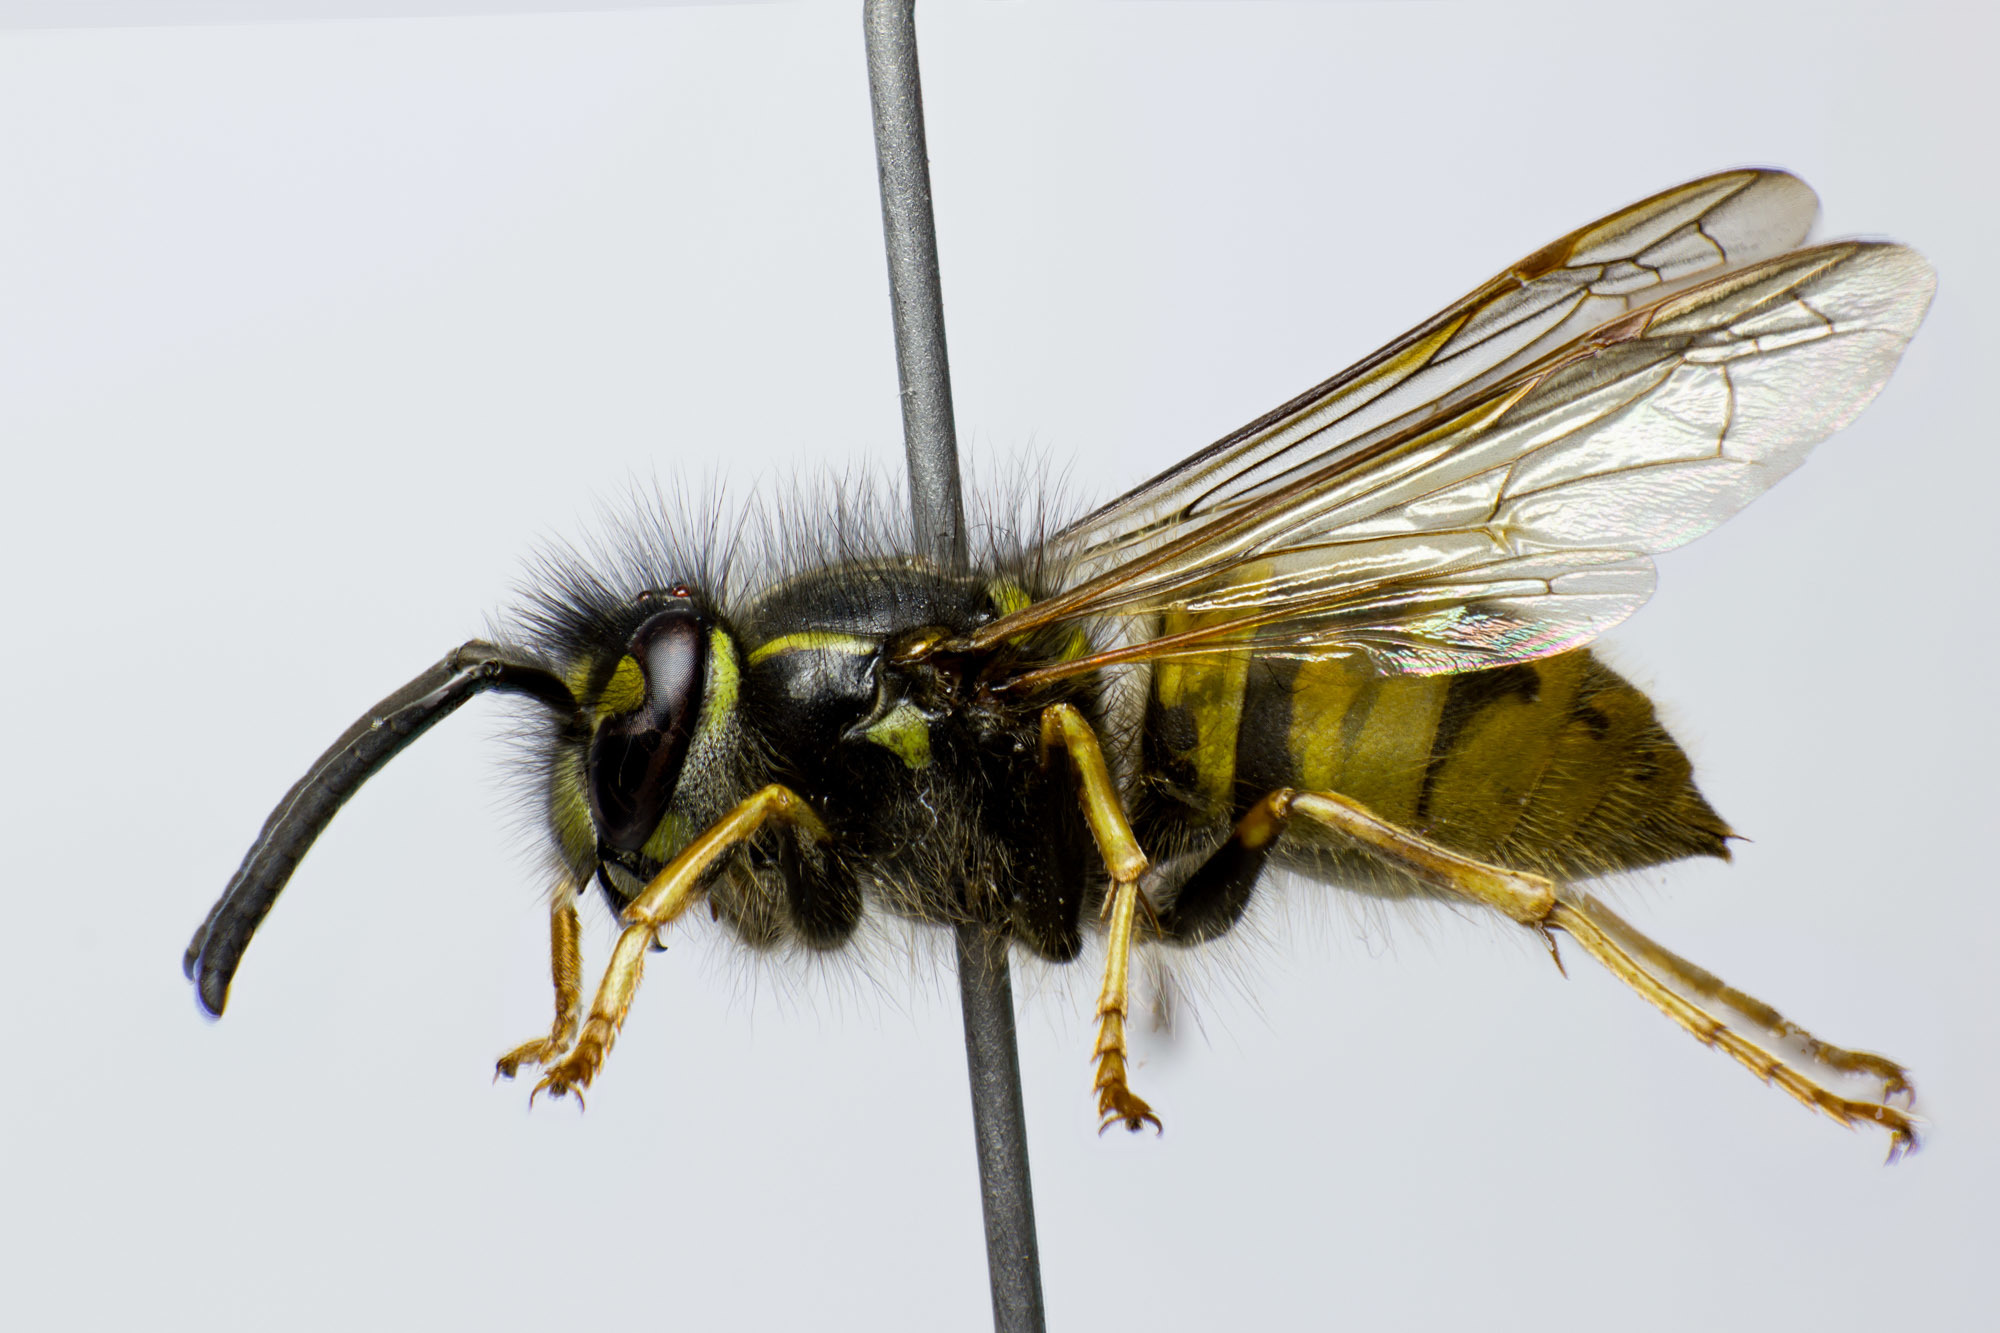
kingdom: Animalia
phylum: Arthropoda
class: Insecta
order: Hymenoptera
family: Vespidae
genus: Vespula
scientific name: Vespula vulgaris
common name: Common wasp
